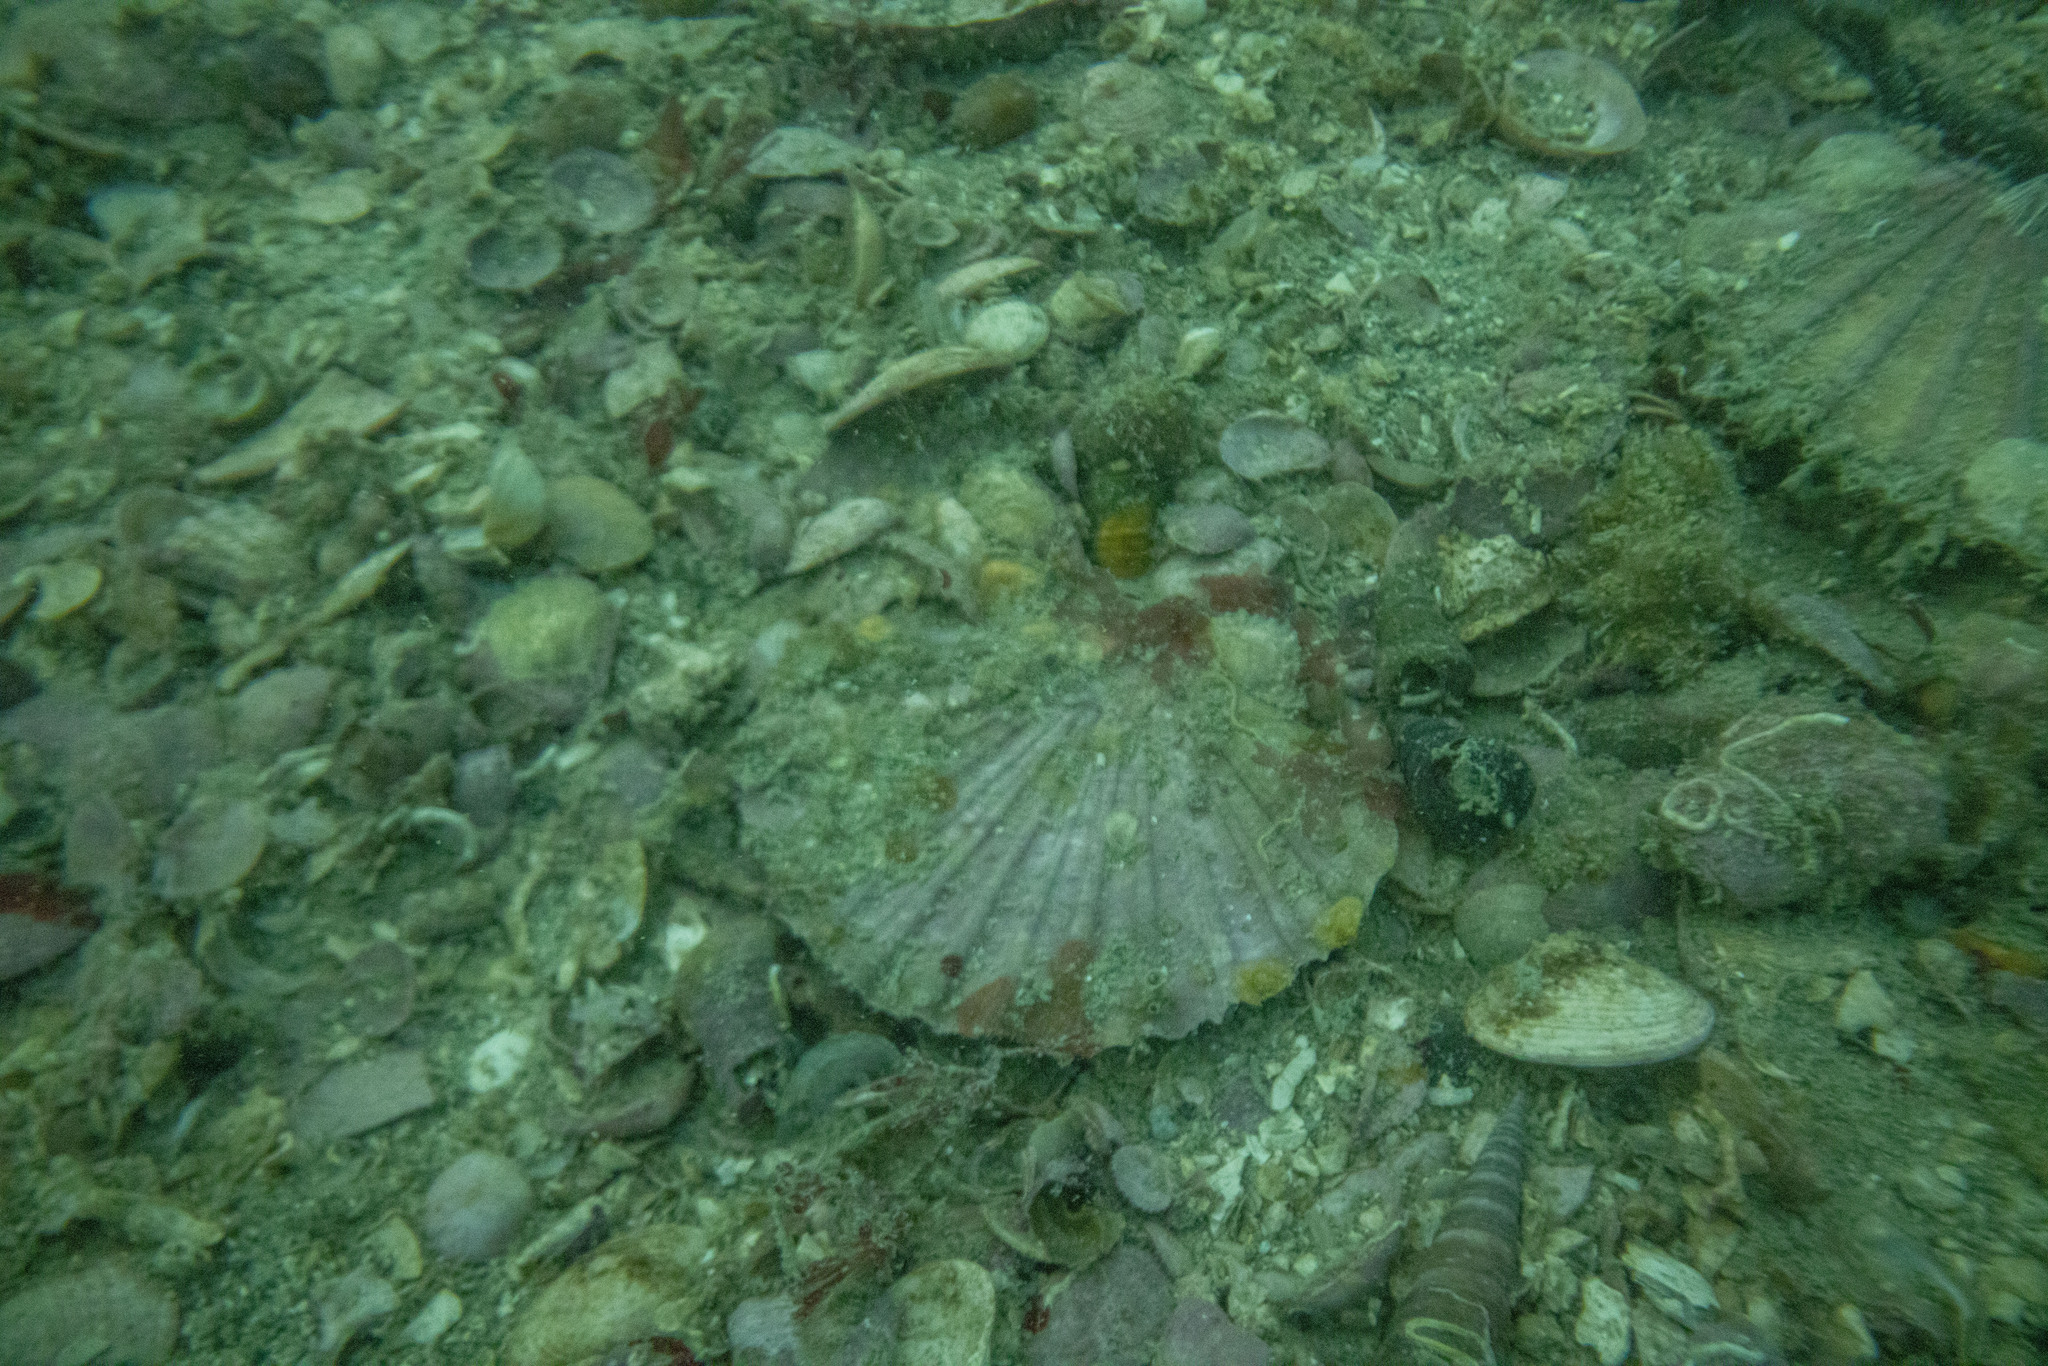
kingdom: Animalia
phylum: Mollusca
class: Bivalvia
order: Pectinida
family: Pectinidae
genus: Pecten
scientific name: Pecten novaezelandiae
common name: New zealand scallop
